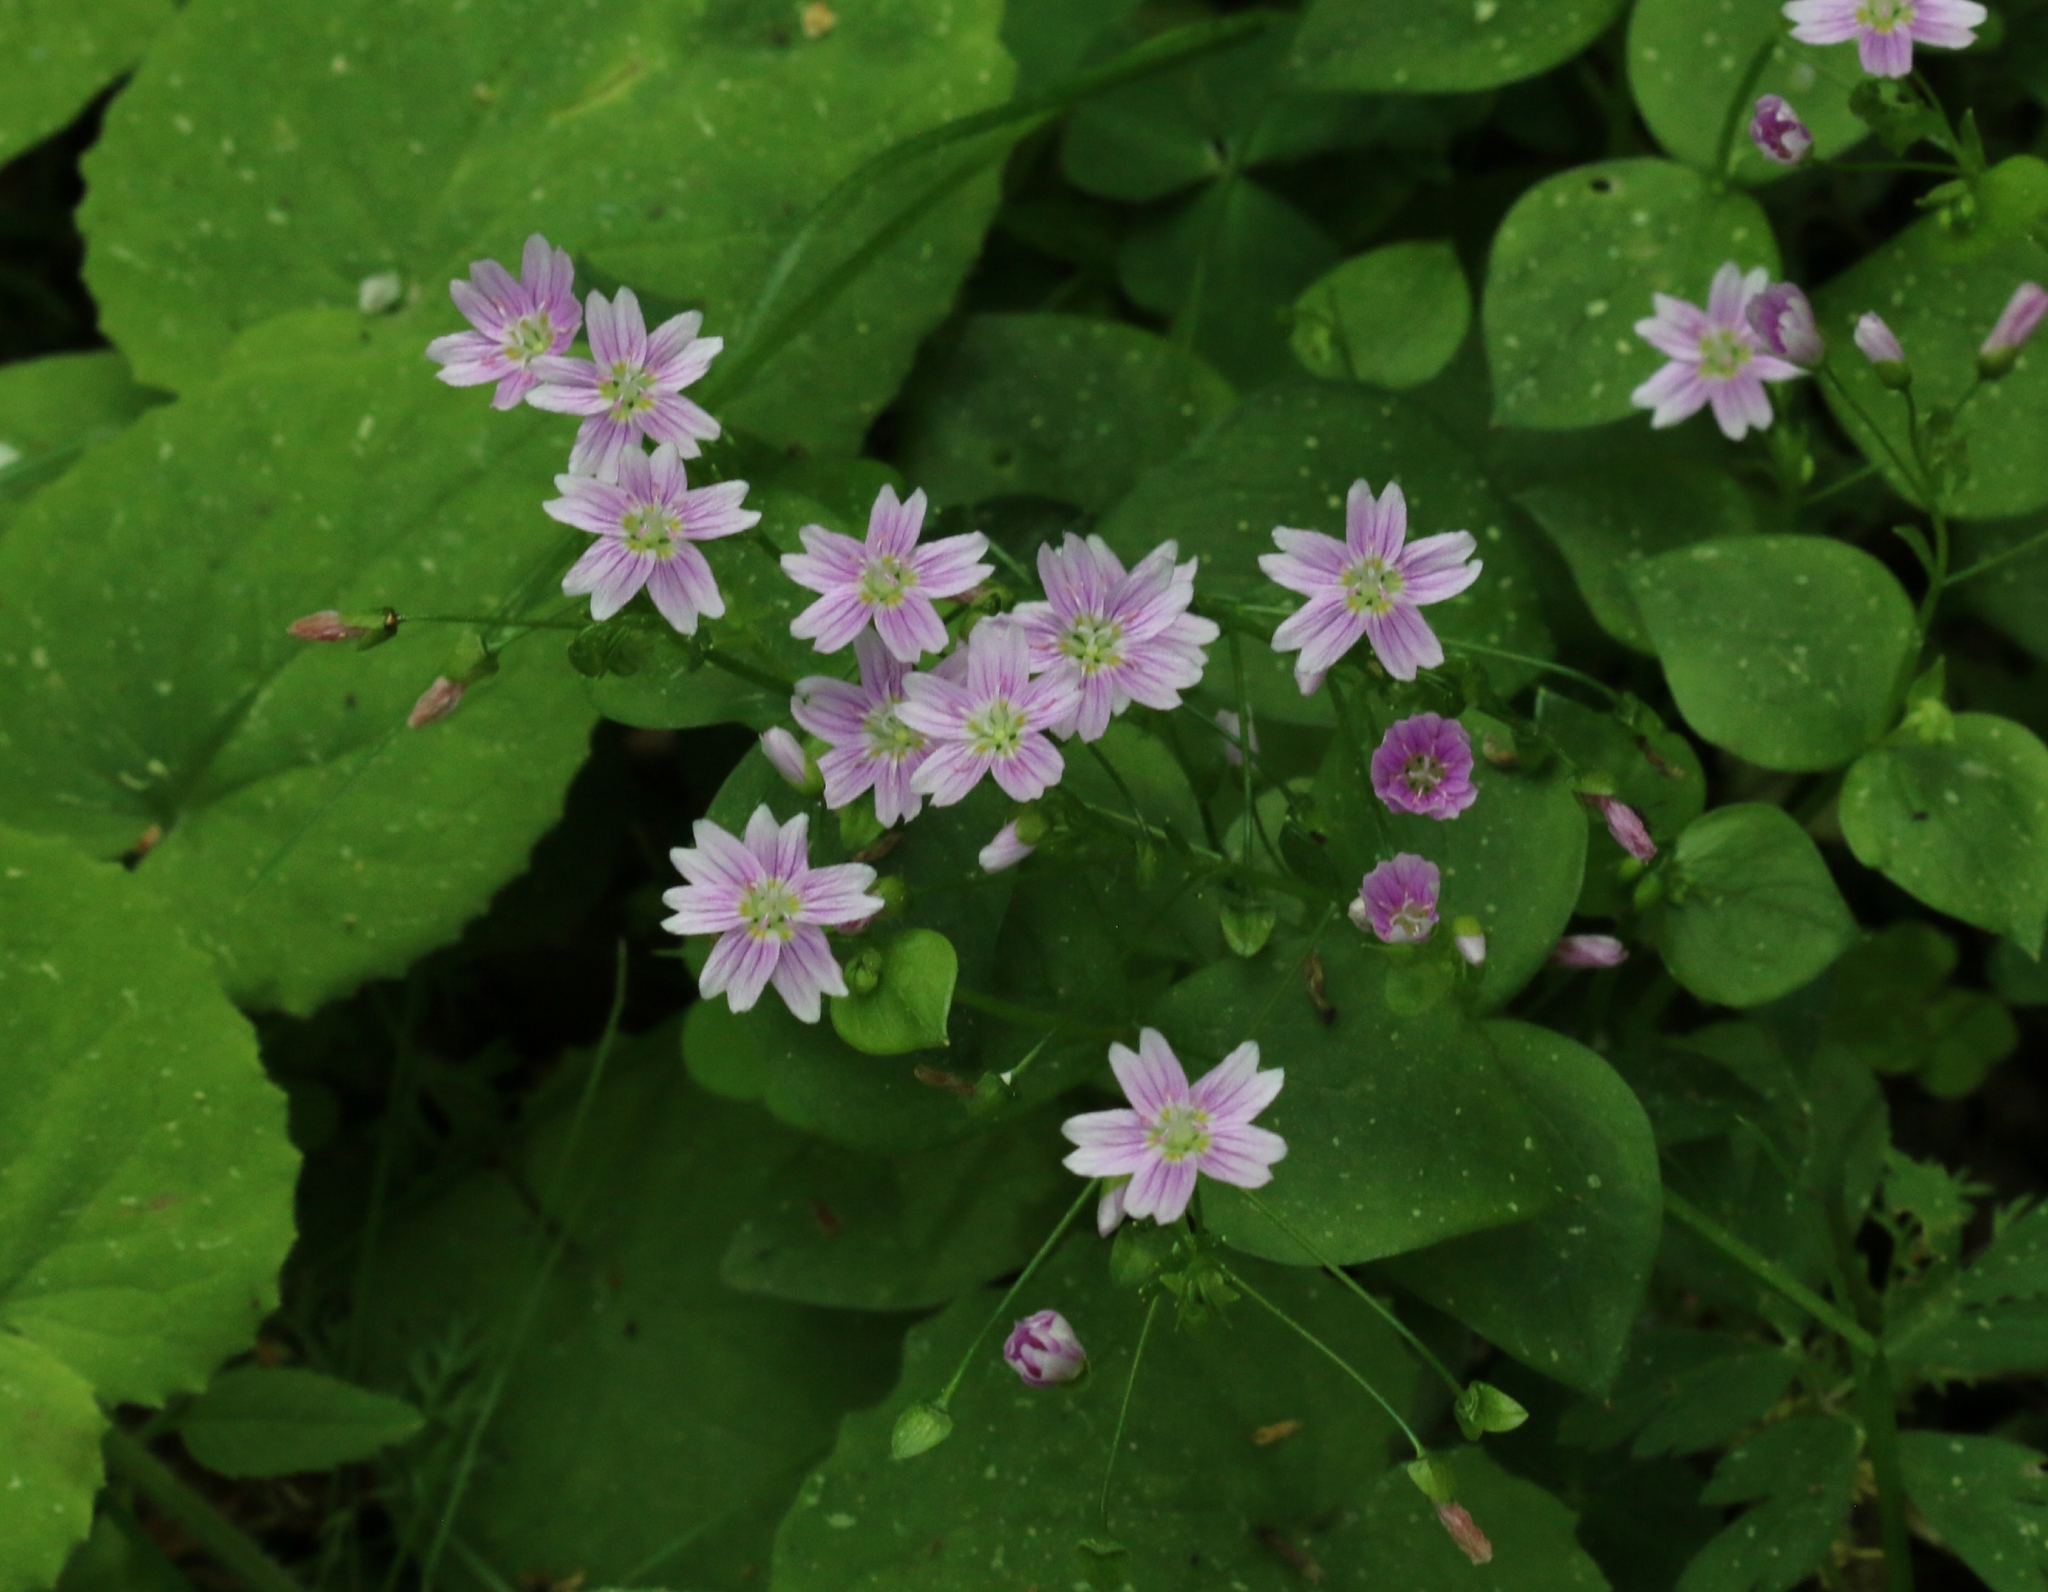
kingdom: Plantae
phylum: Tracheophyta
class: Magnoliopsida
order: Caryophyllales
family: Montiaceae
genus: Claytonia
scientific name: Claytonia sibirica
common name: Pink purslane
